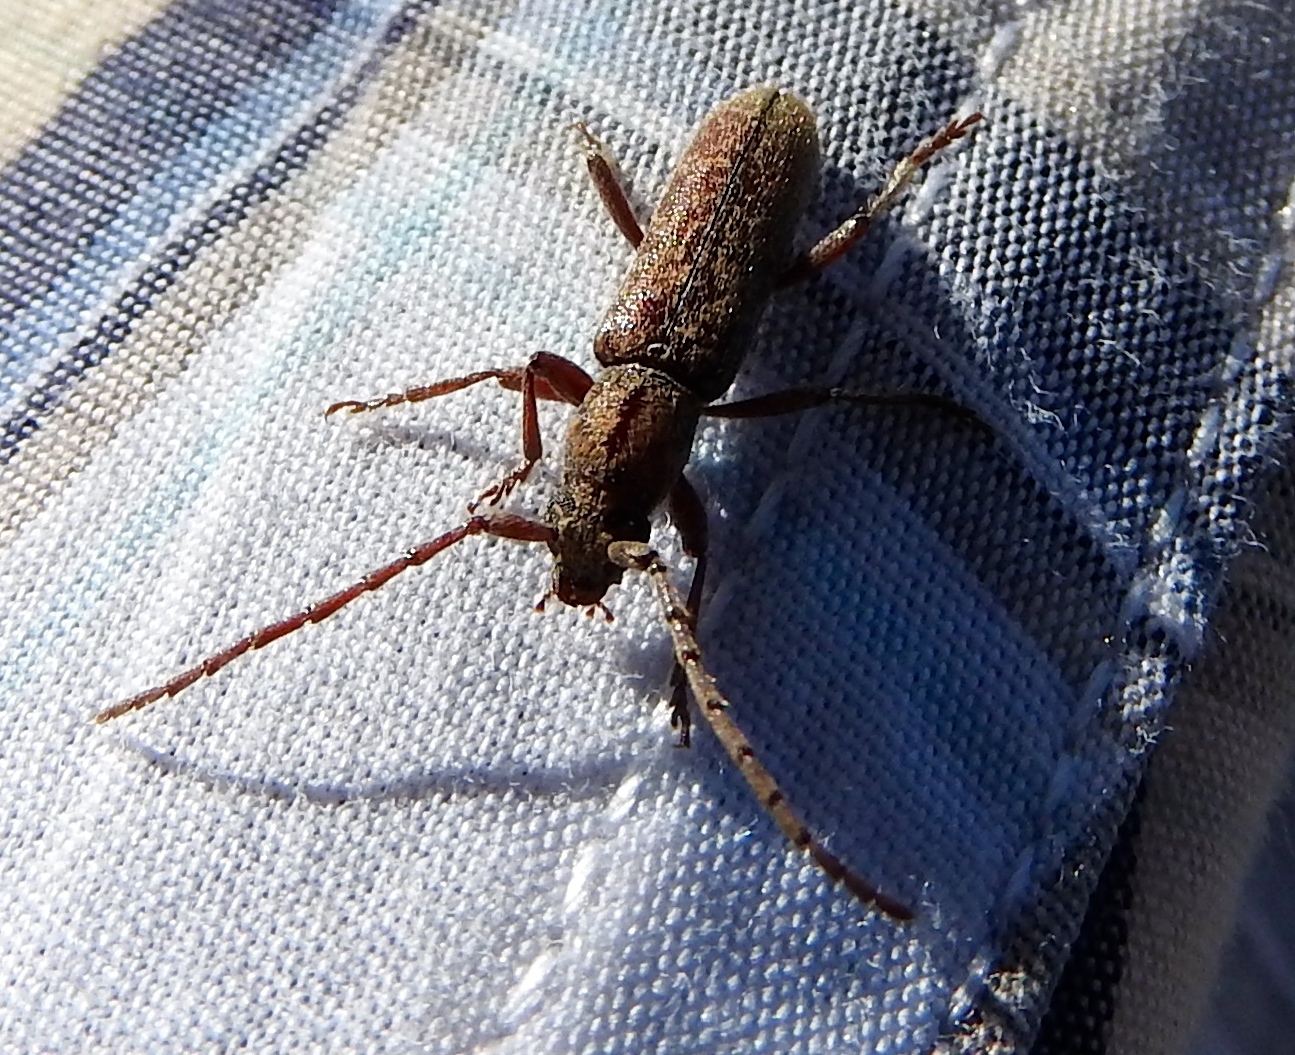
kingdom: Animalia
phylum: Arthropoda
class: Insecta
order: Coleoptera
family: Cerambycidae
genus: Anelaphus
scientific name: Anelaphus badius
